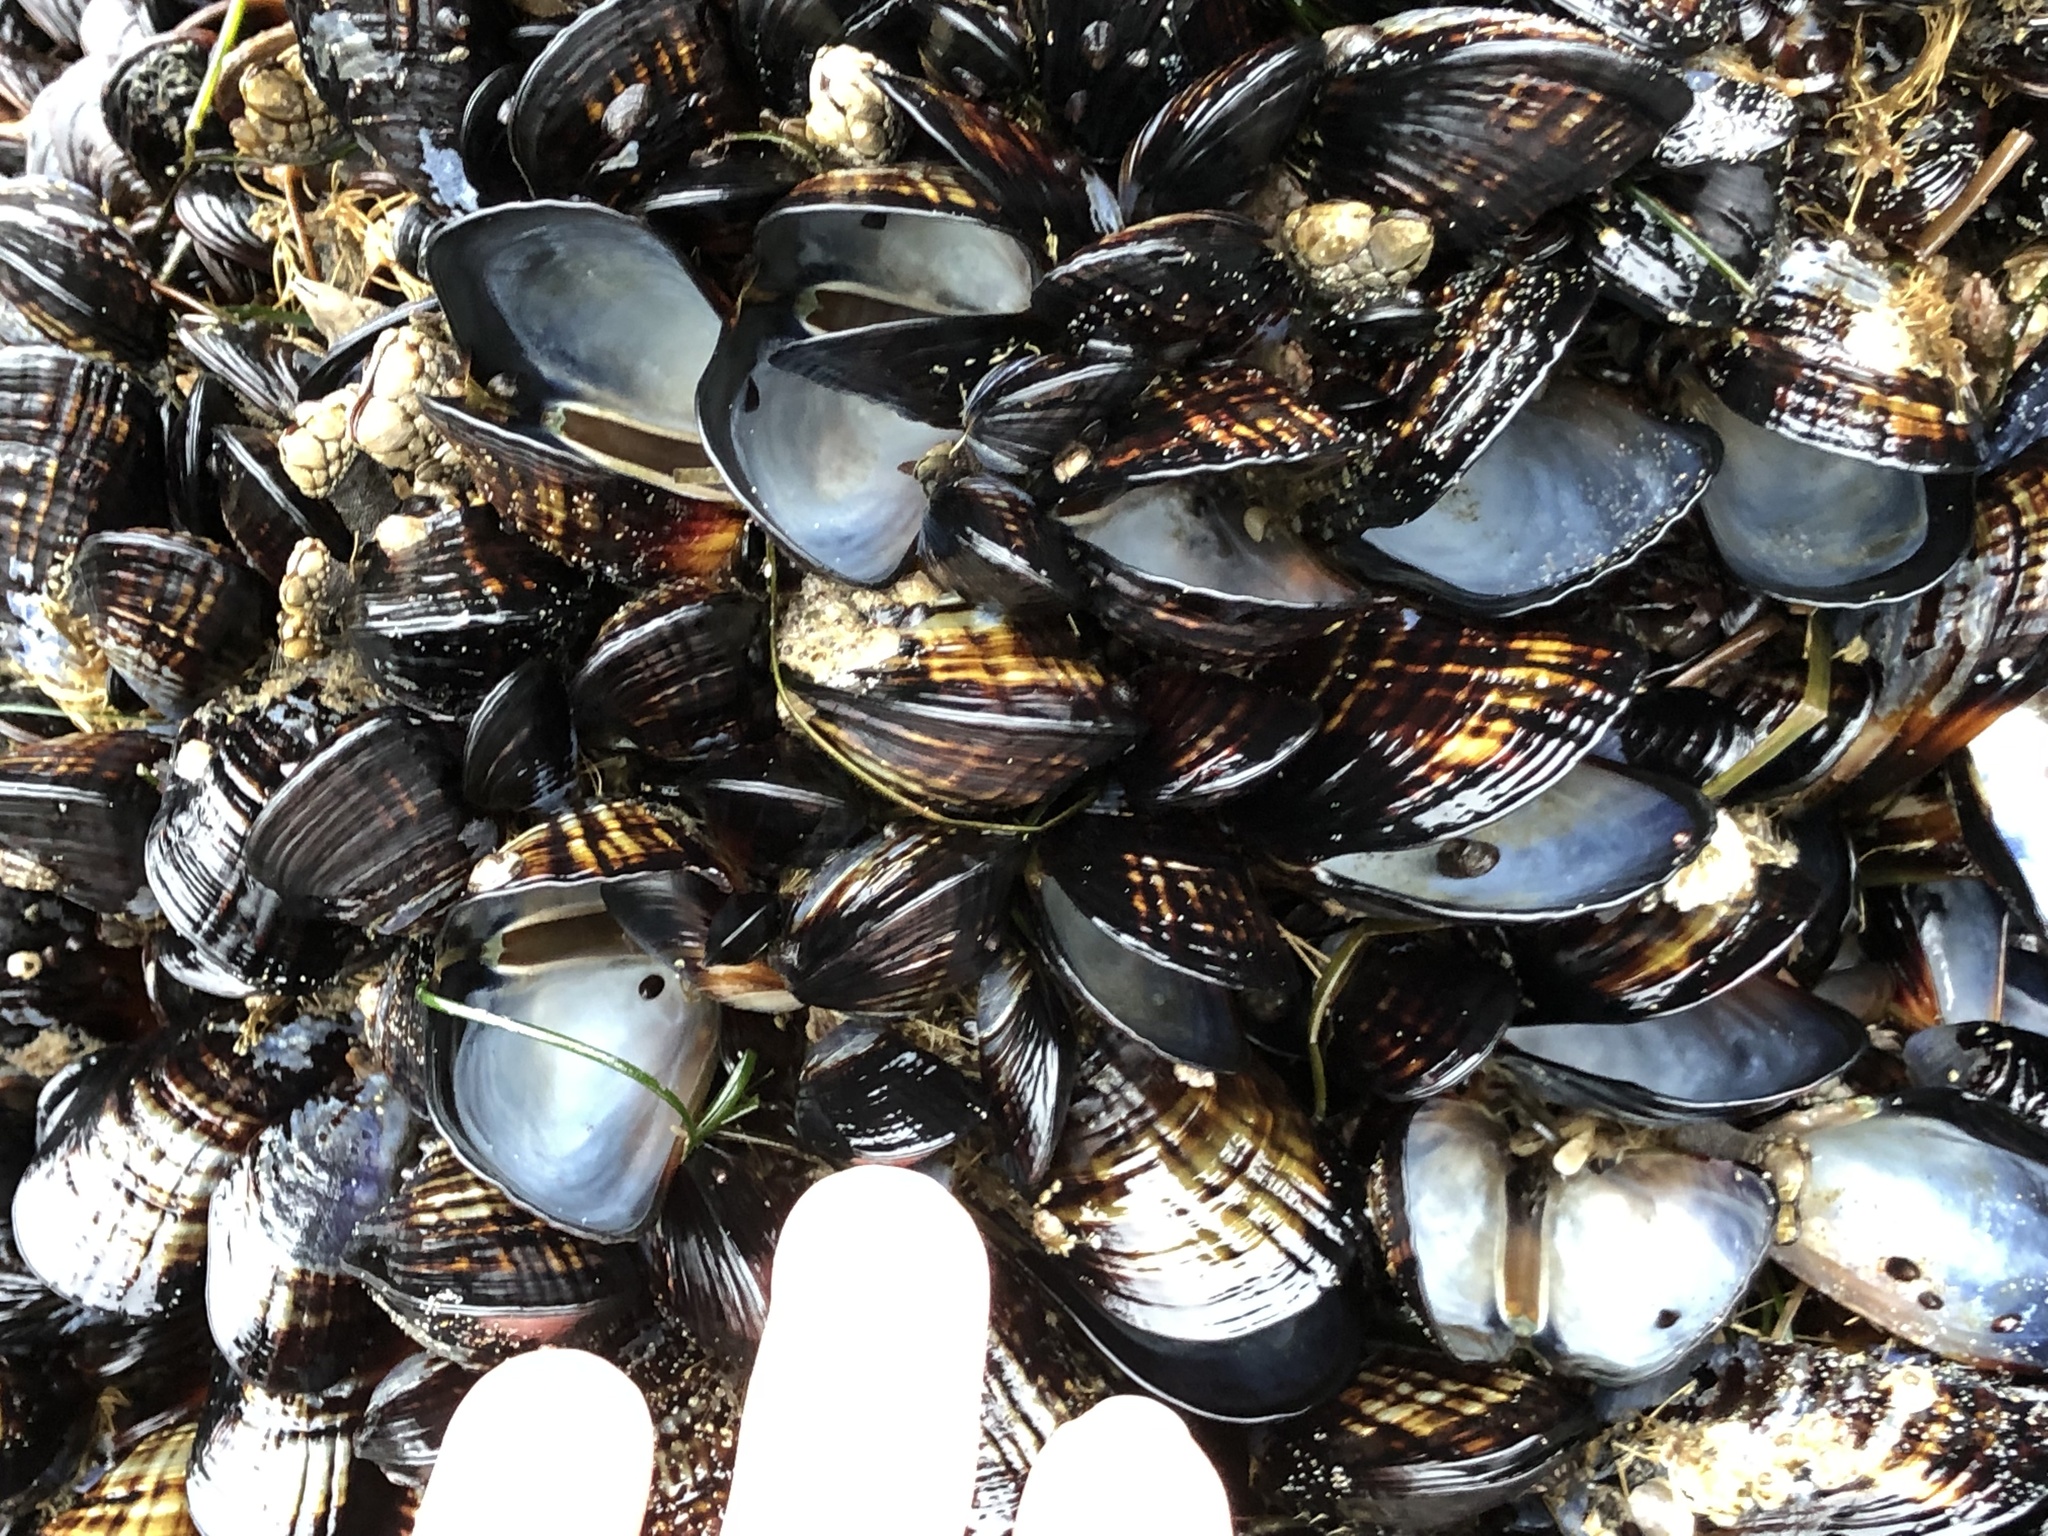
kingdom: Animalia
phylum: Mollusca
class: Bivalvia
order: Mytilida
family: Mytilidae
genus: Mytilus
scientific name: Mytilus californianus
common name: California mussel
